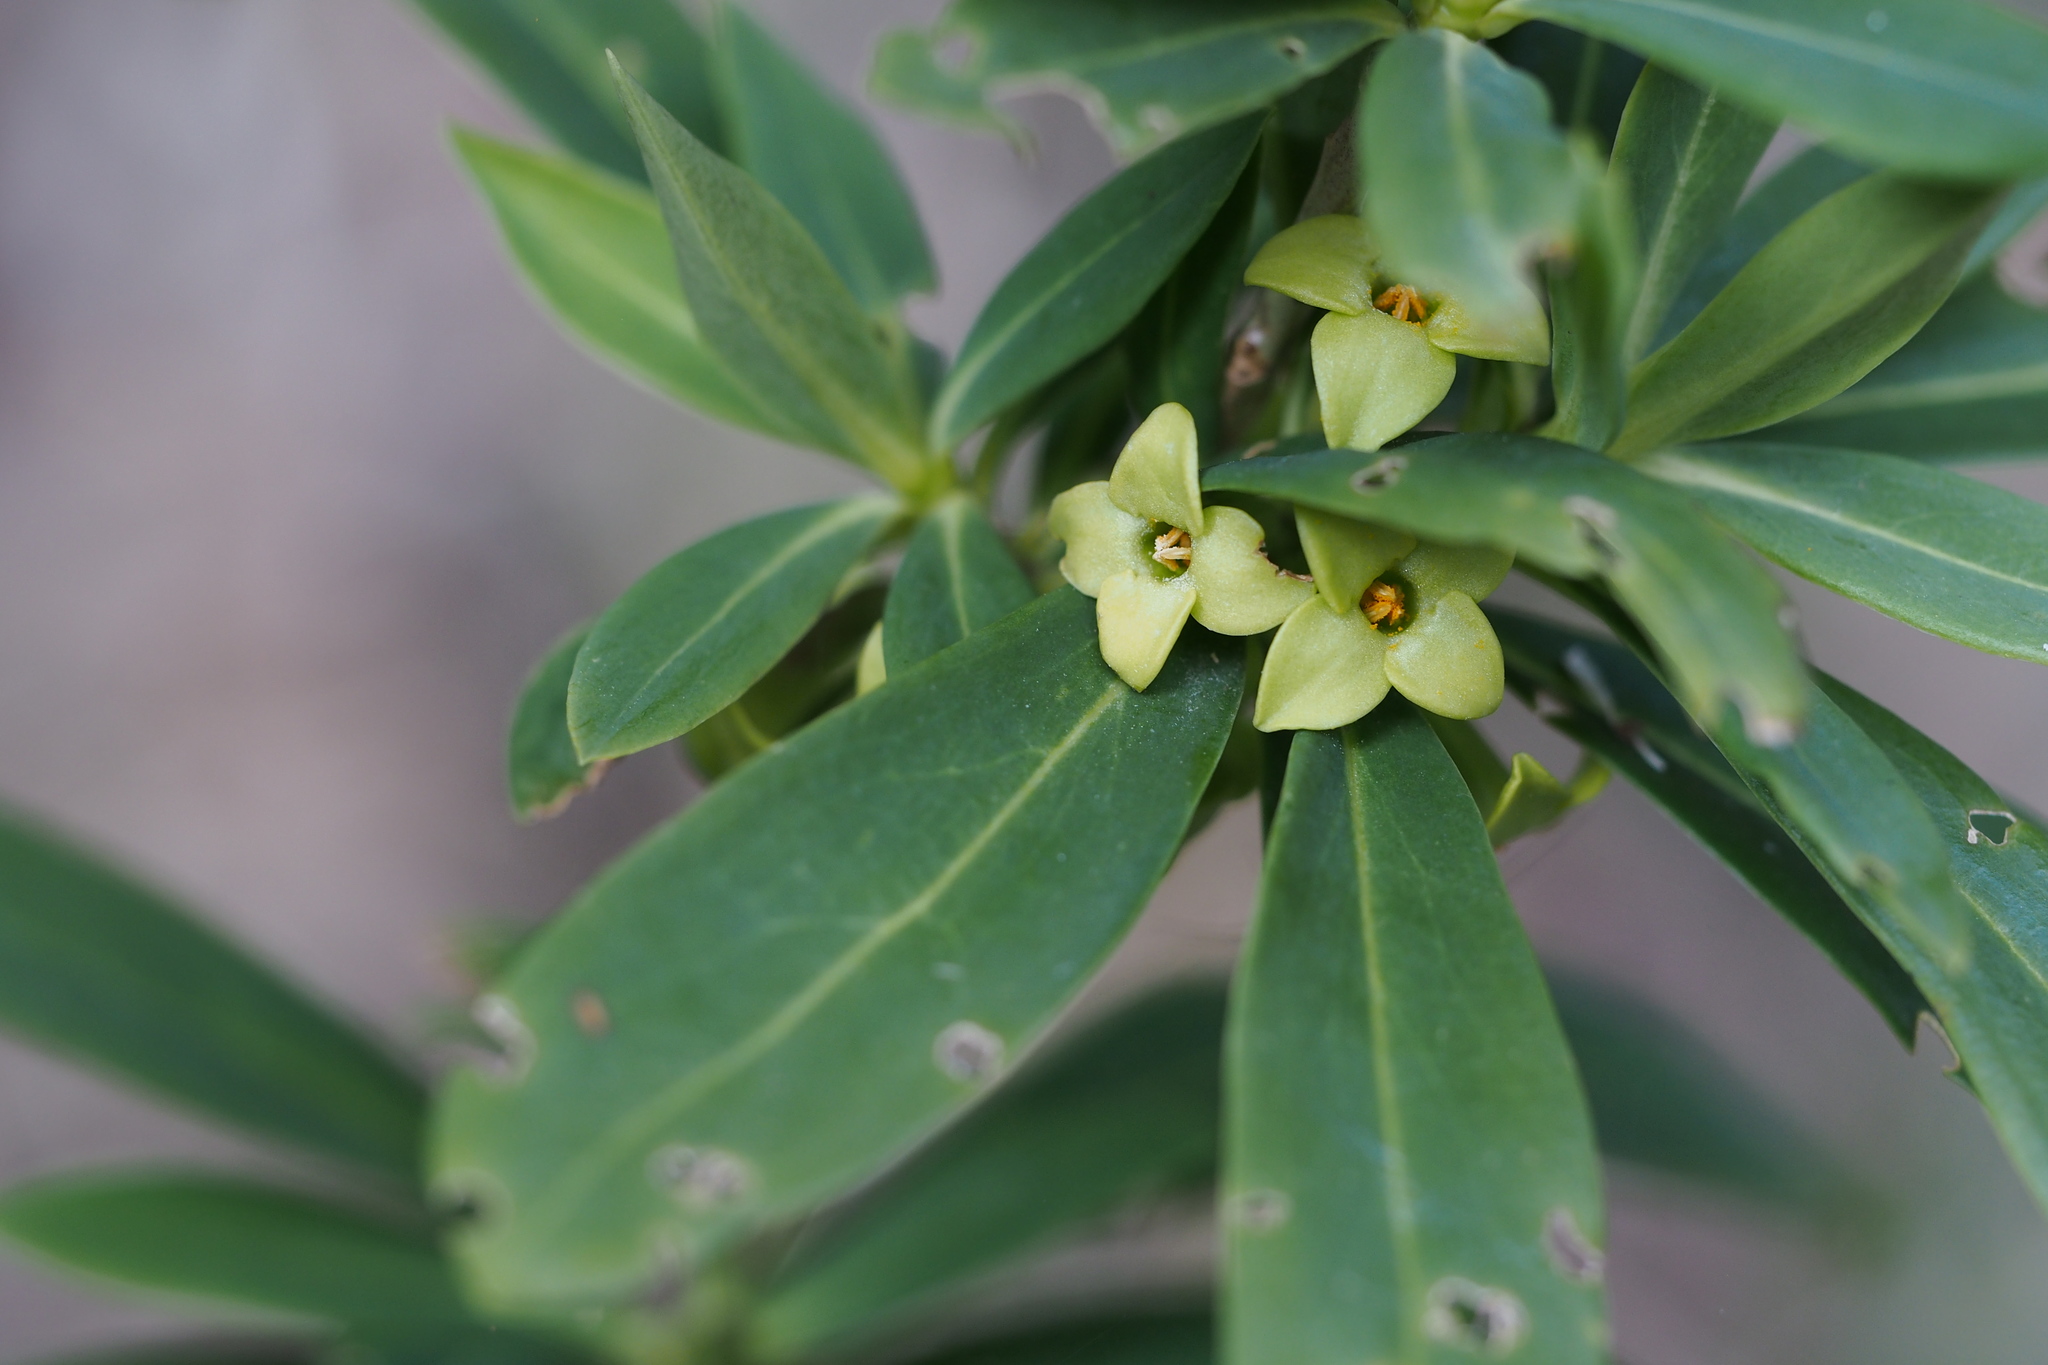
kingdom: Plantae
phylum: Tracheophyta
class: Magnoliopsida
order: Malvales
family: Thymelaeaceae
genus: Daphne
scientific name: Daphne pseudomezereum
